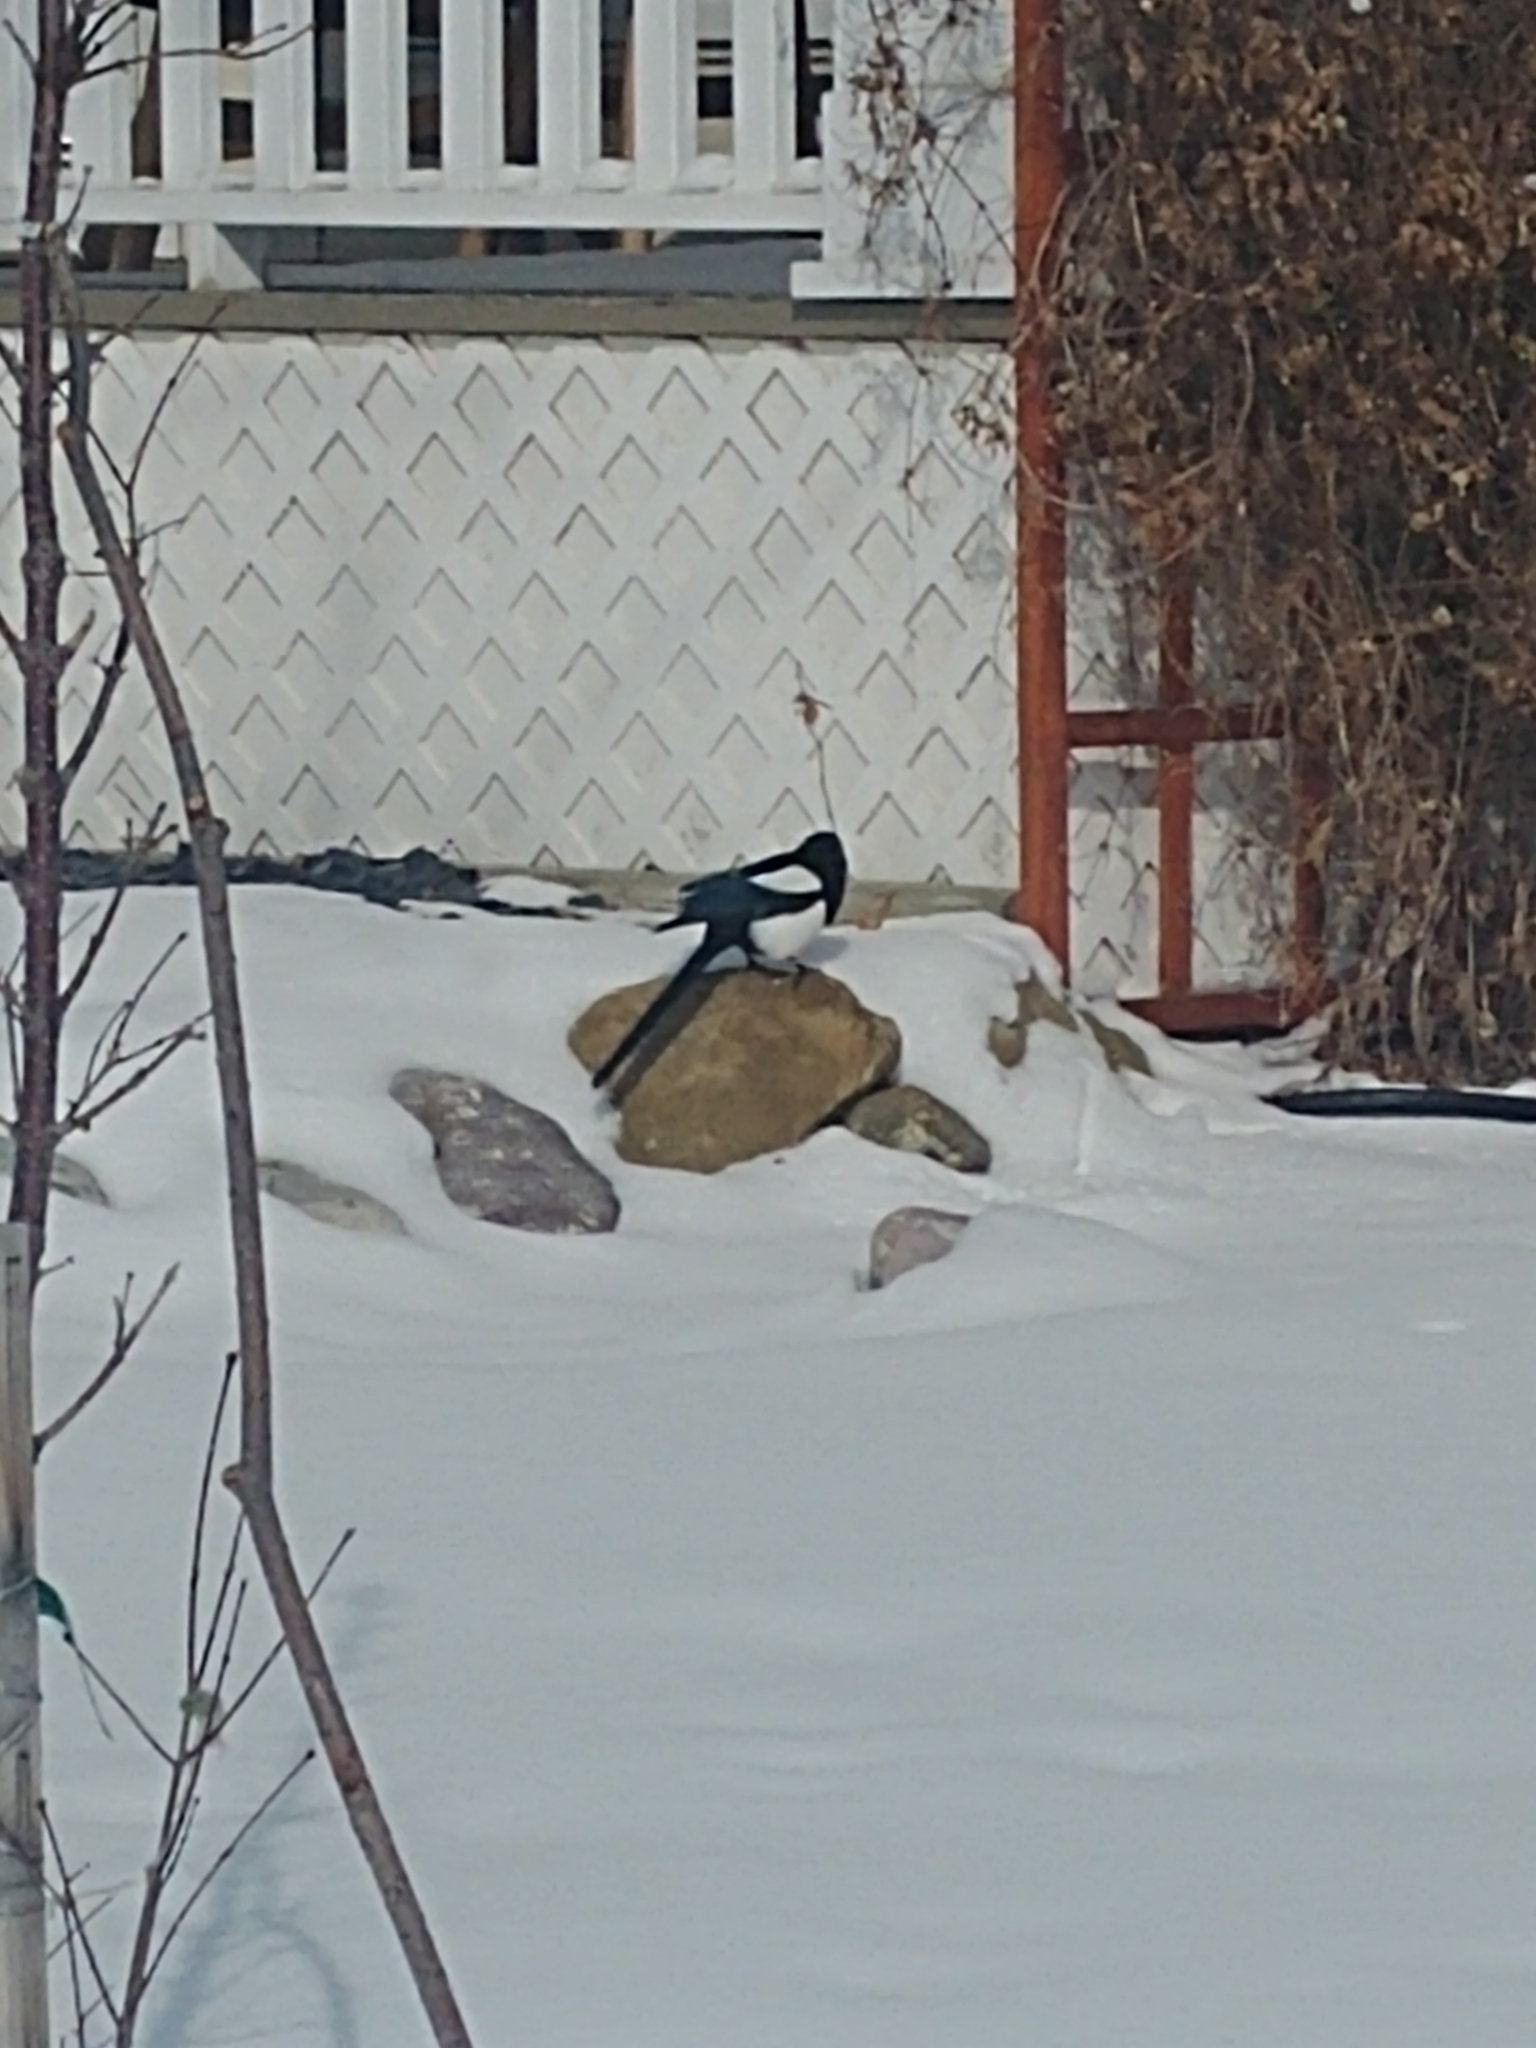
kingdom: Animalia
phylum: Chordata
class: Aves
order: Passeriformes
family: Corvidae
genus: Pica
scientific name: Pica hudsonia
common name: Black-billed magpie
